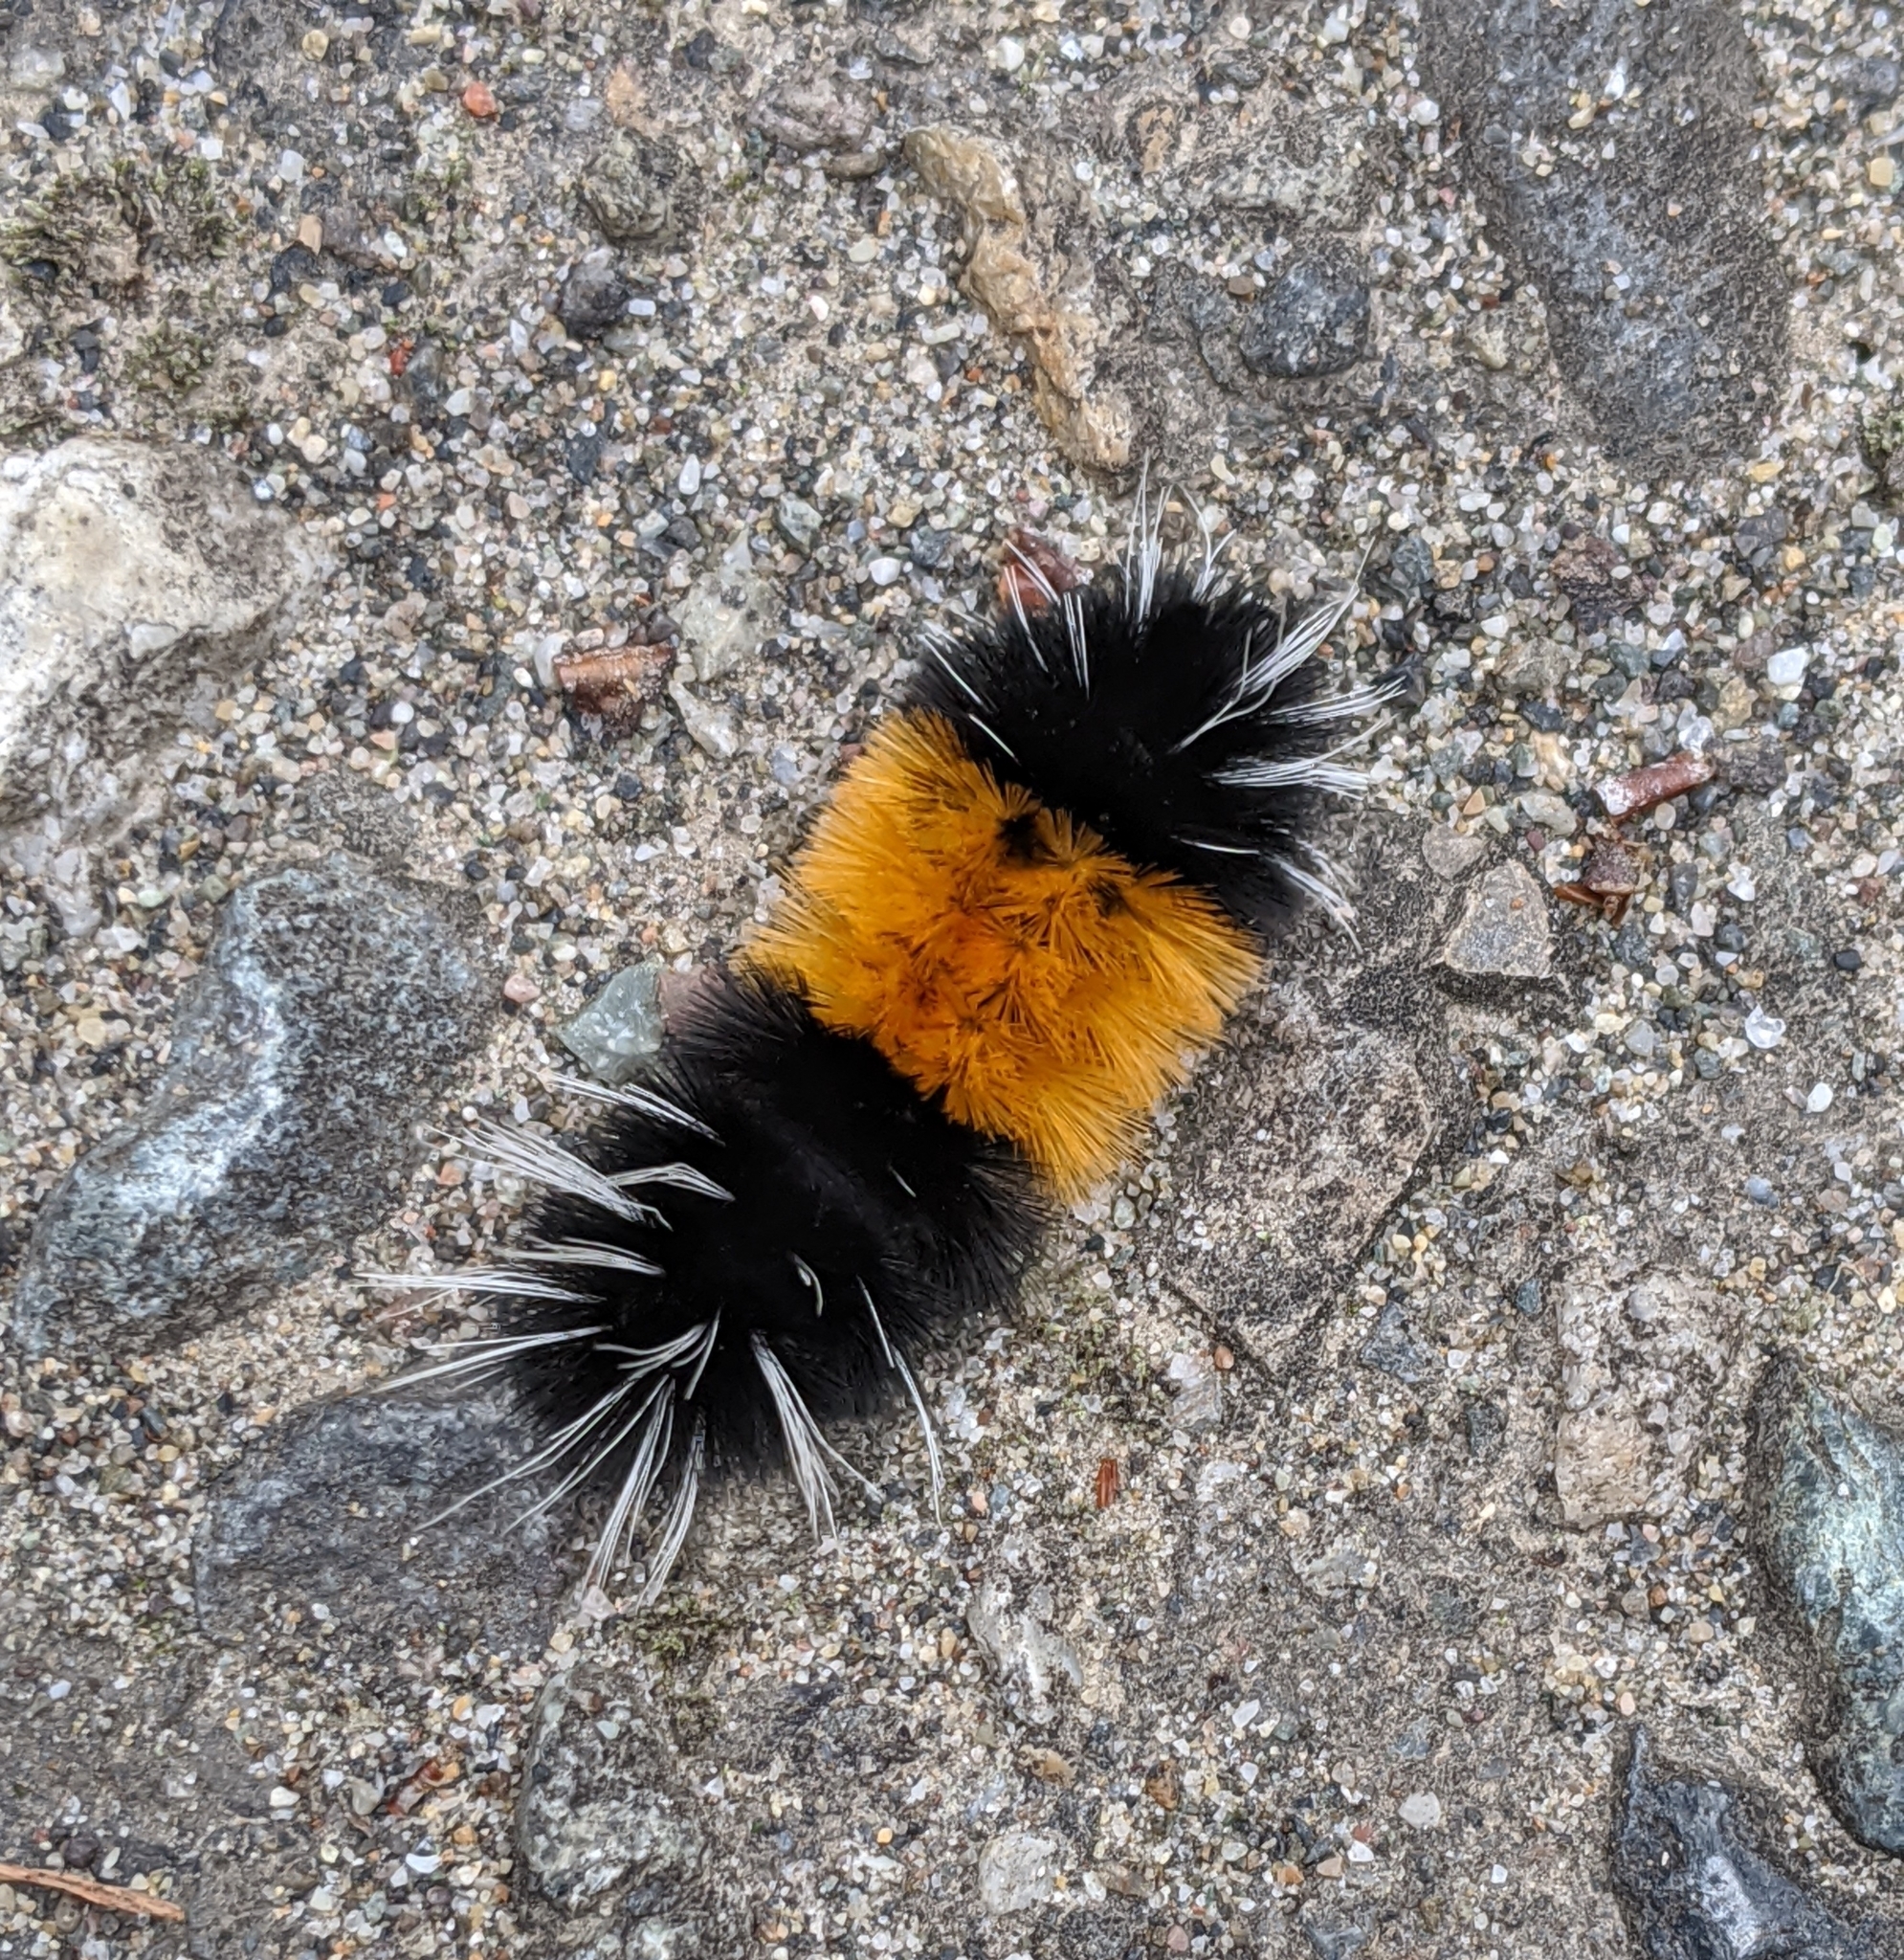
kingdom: Animalia
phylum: Arthropoda
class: Insecta
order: Lepidoptera
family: Erebidae
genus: Lophocampa
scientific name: Lophocampa maculata
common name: Spotted tussock moth
